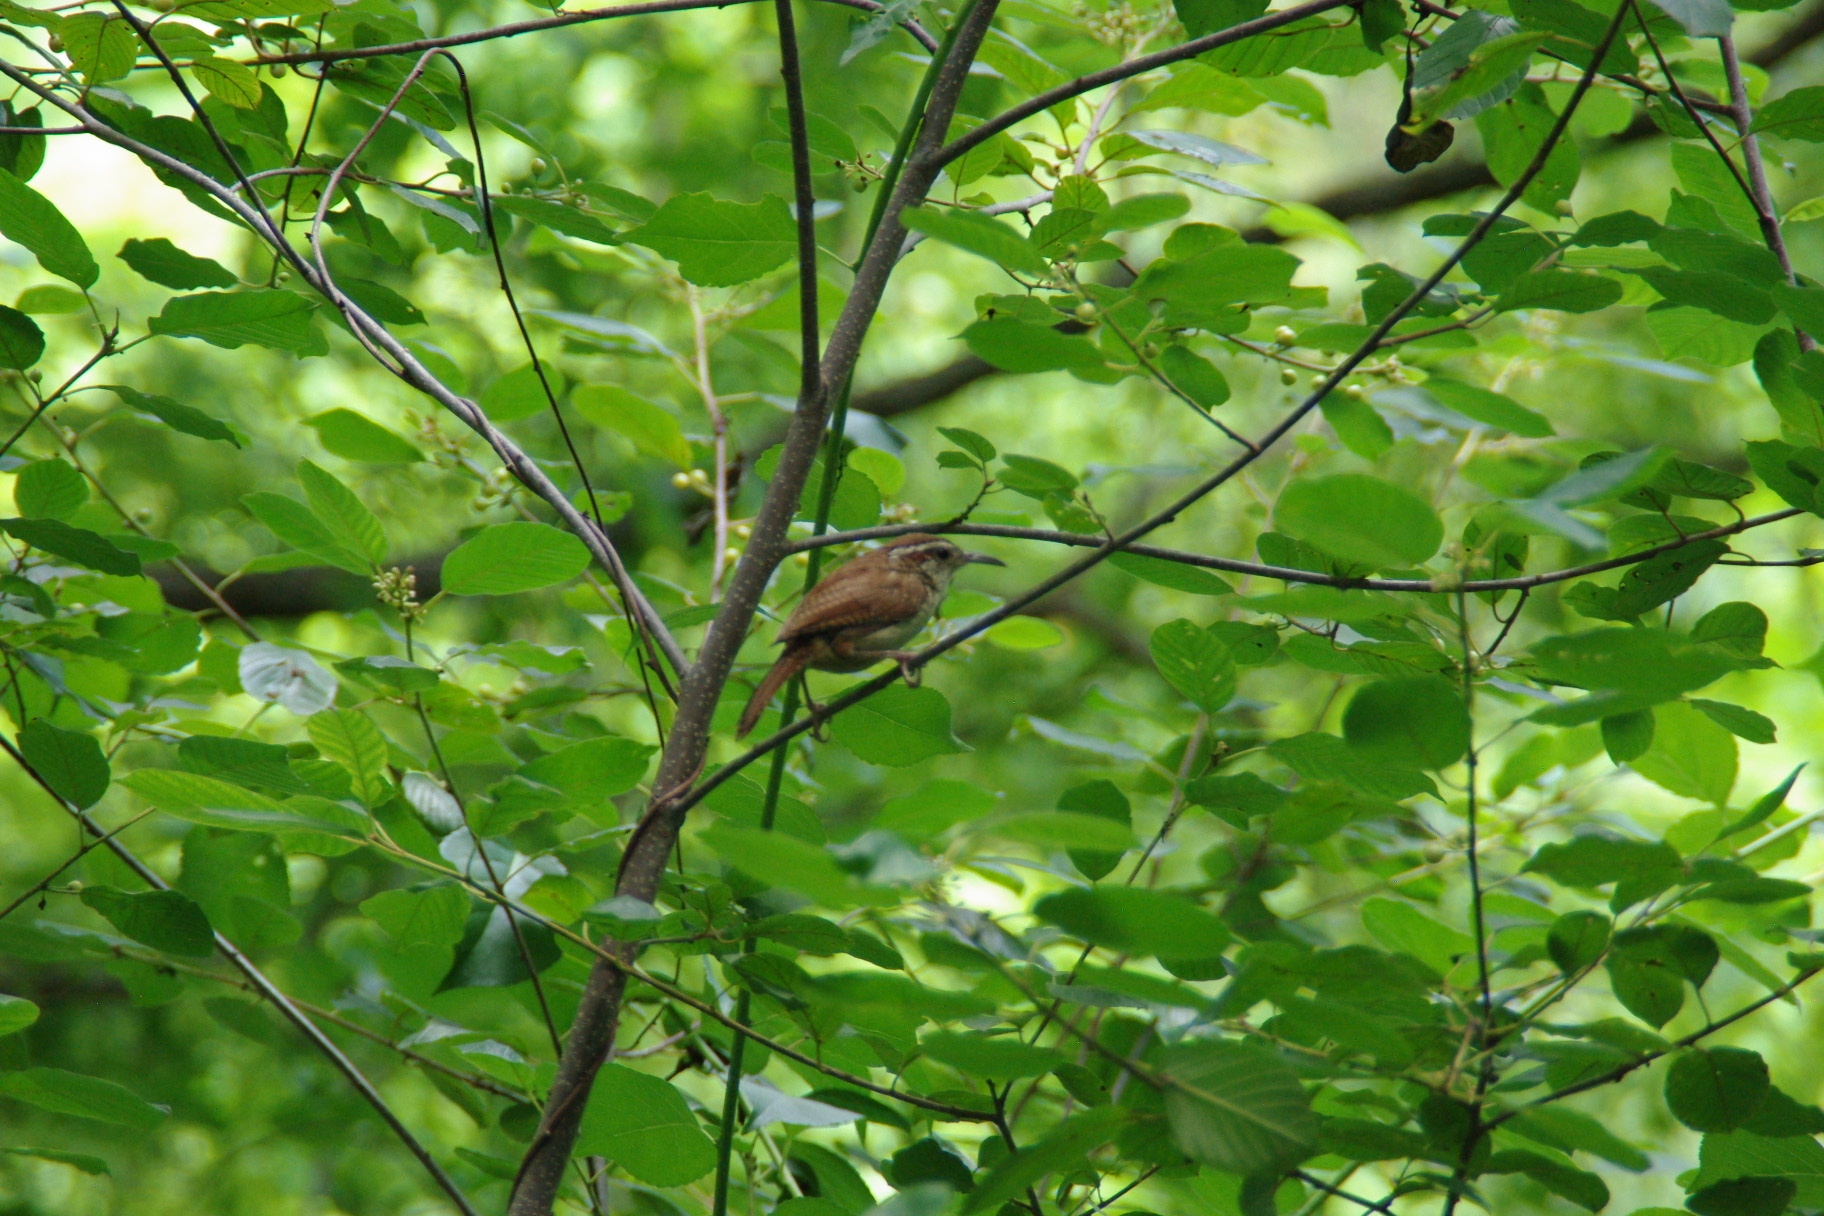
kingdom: Animalia
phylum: Chordata
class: Aves
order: Passeriformes
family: Troglodytidae
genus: Thryothorus
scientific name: Thryothorus ludovicianus
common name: Carolina wren
